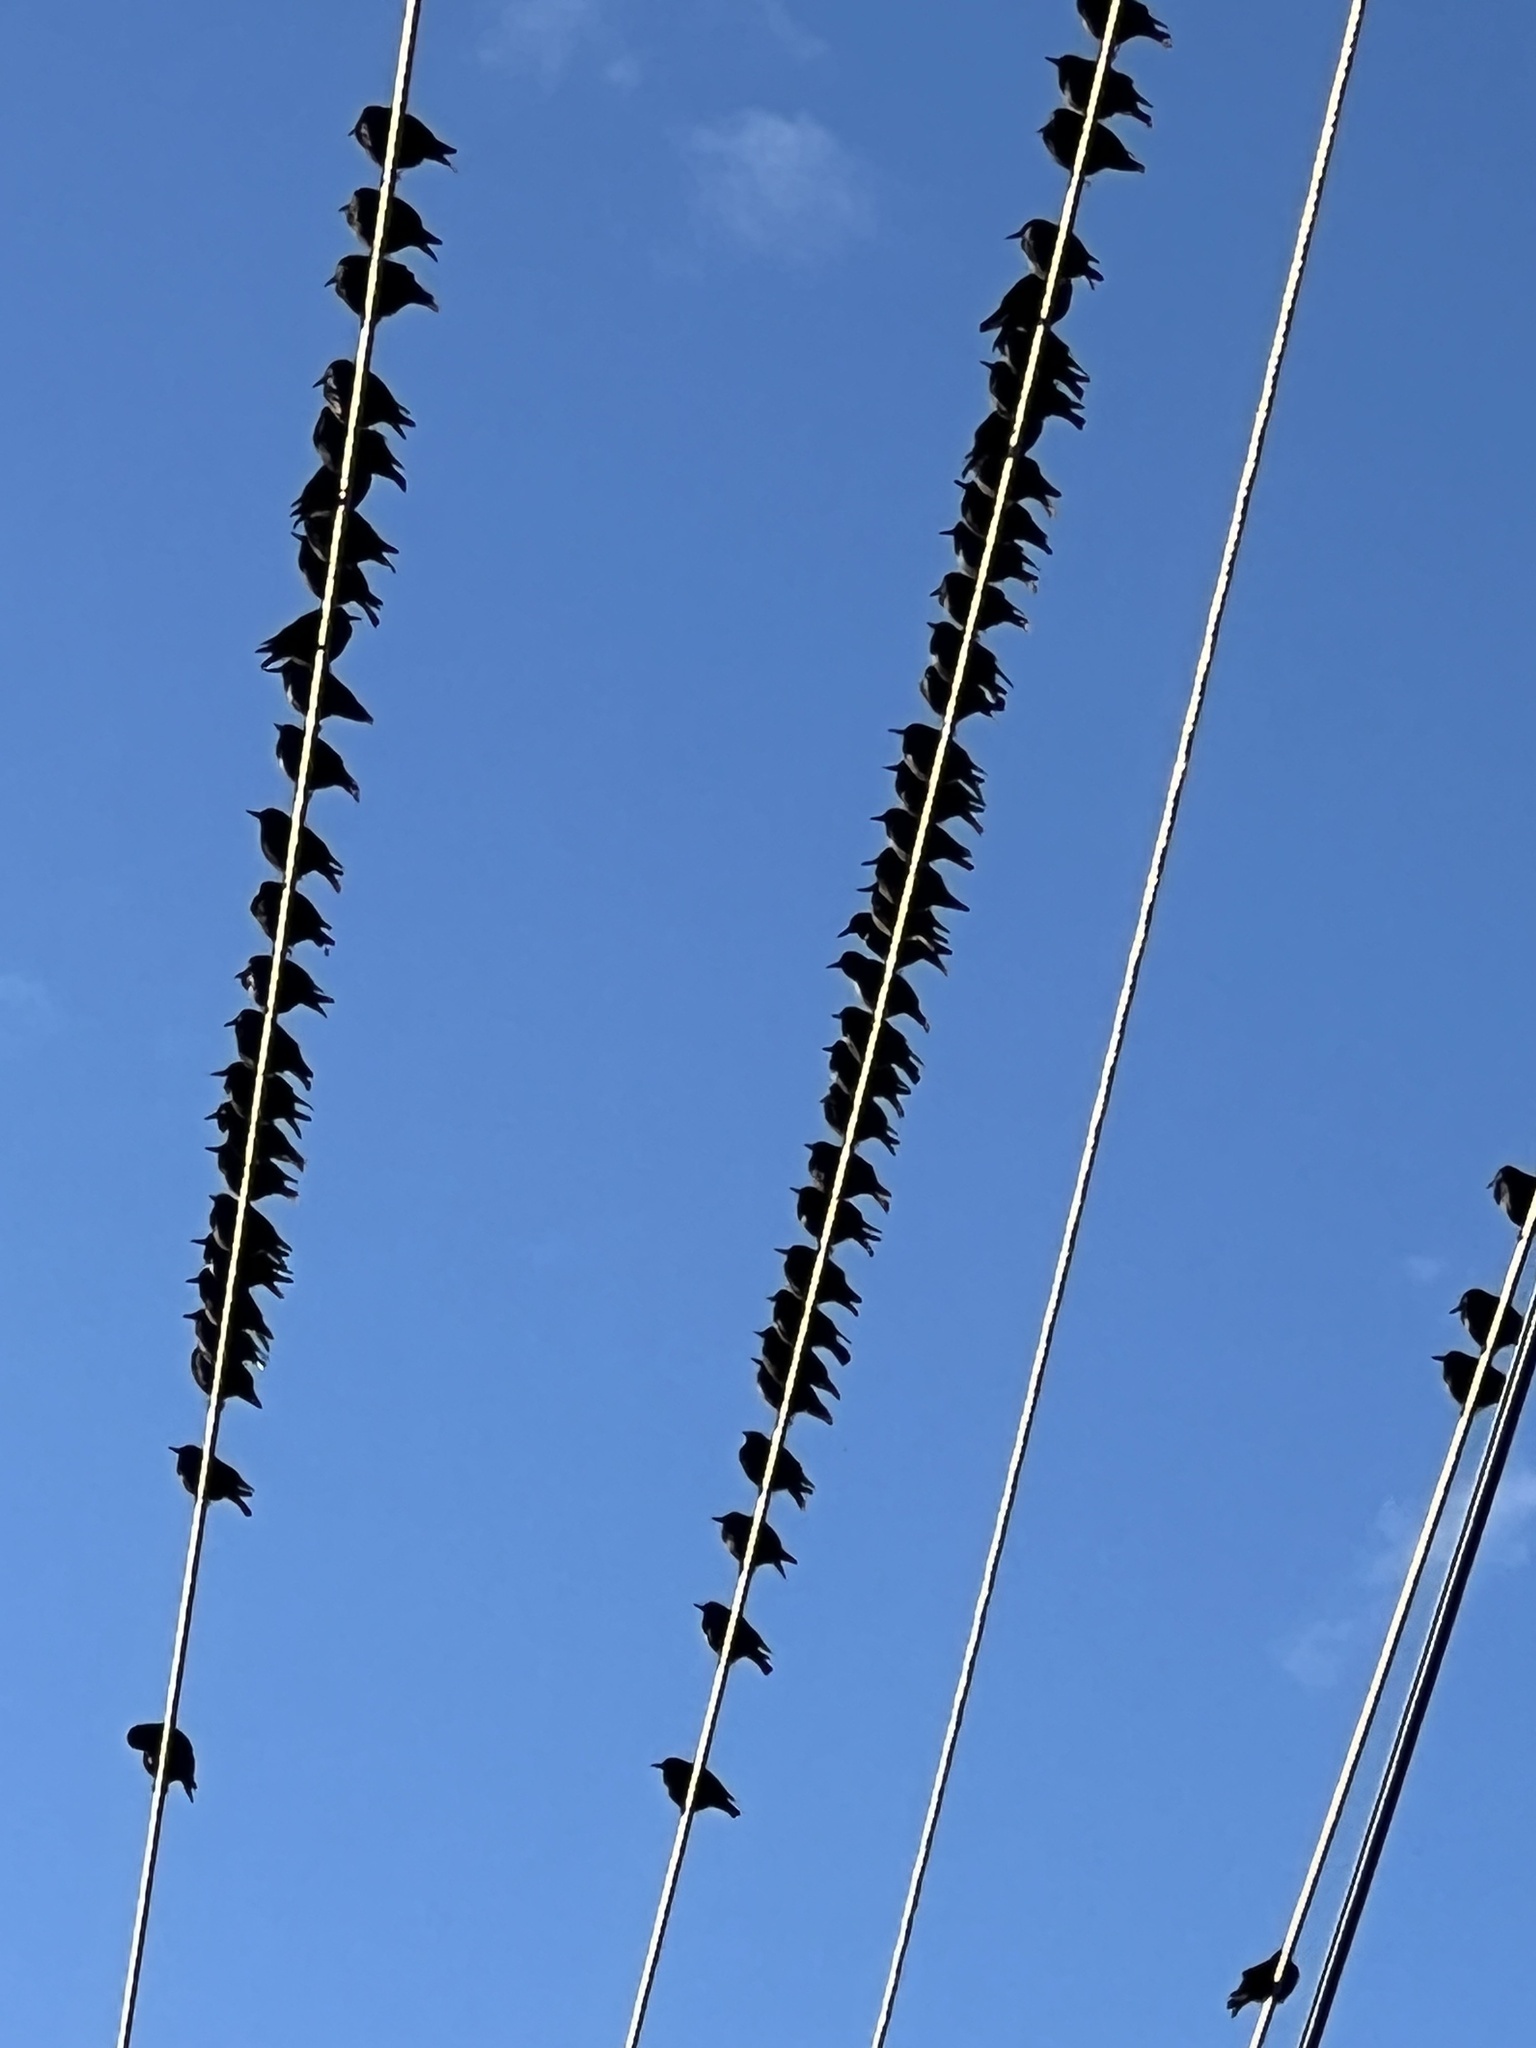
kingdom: Animalia
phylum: Chordata
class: Aves
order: Passeriformes
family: Sturnidae
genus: Sturnus
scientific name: Sturnus vulgaris
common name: Common starling
